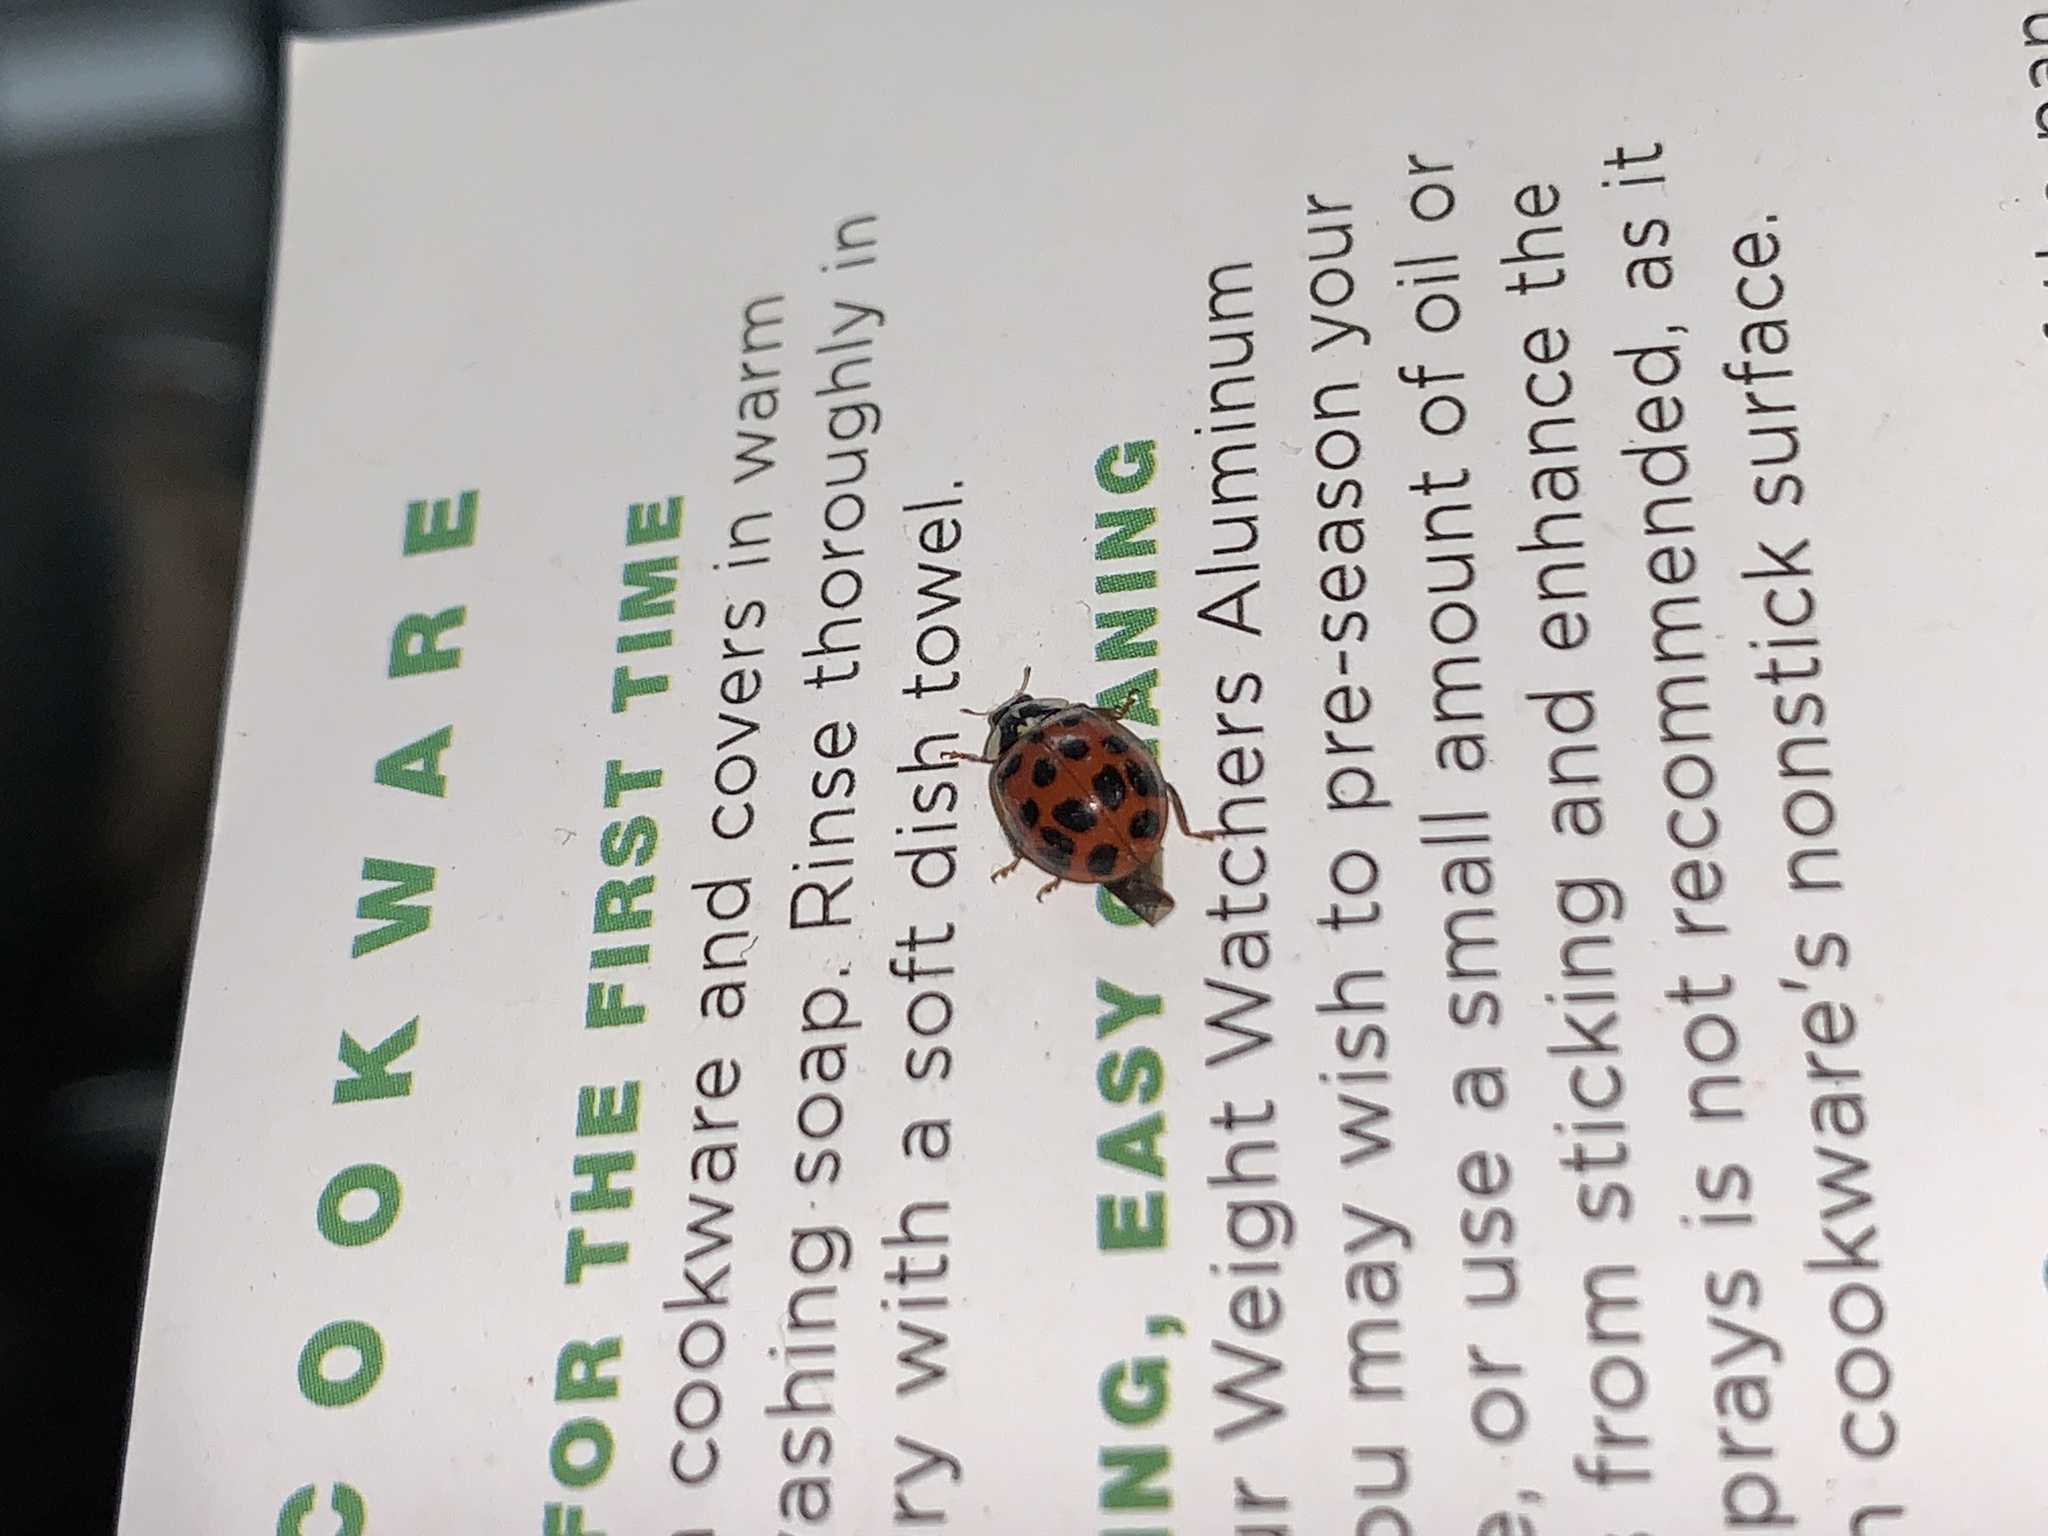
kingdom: Animalia
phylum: Arthropoda
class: Insecta
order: Coleoptera
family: Coccinellidae
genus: Harmonia
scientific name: Harmonia axyridis
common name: Harlequin ladybird
